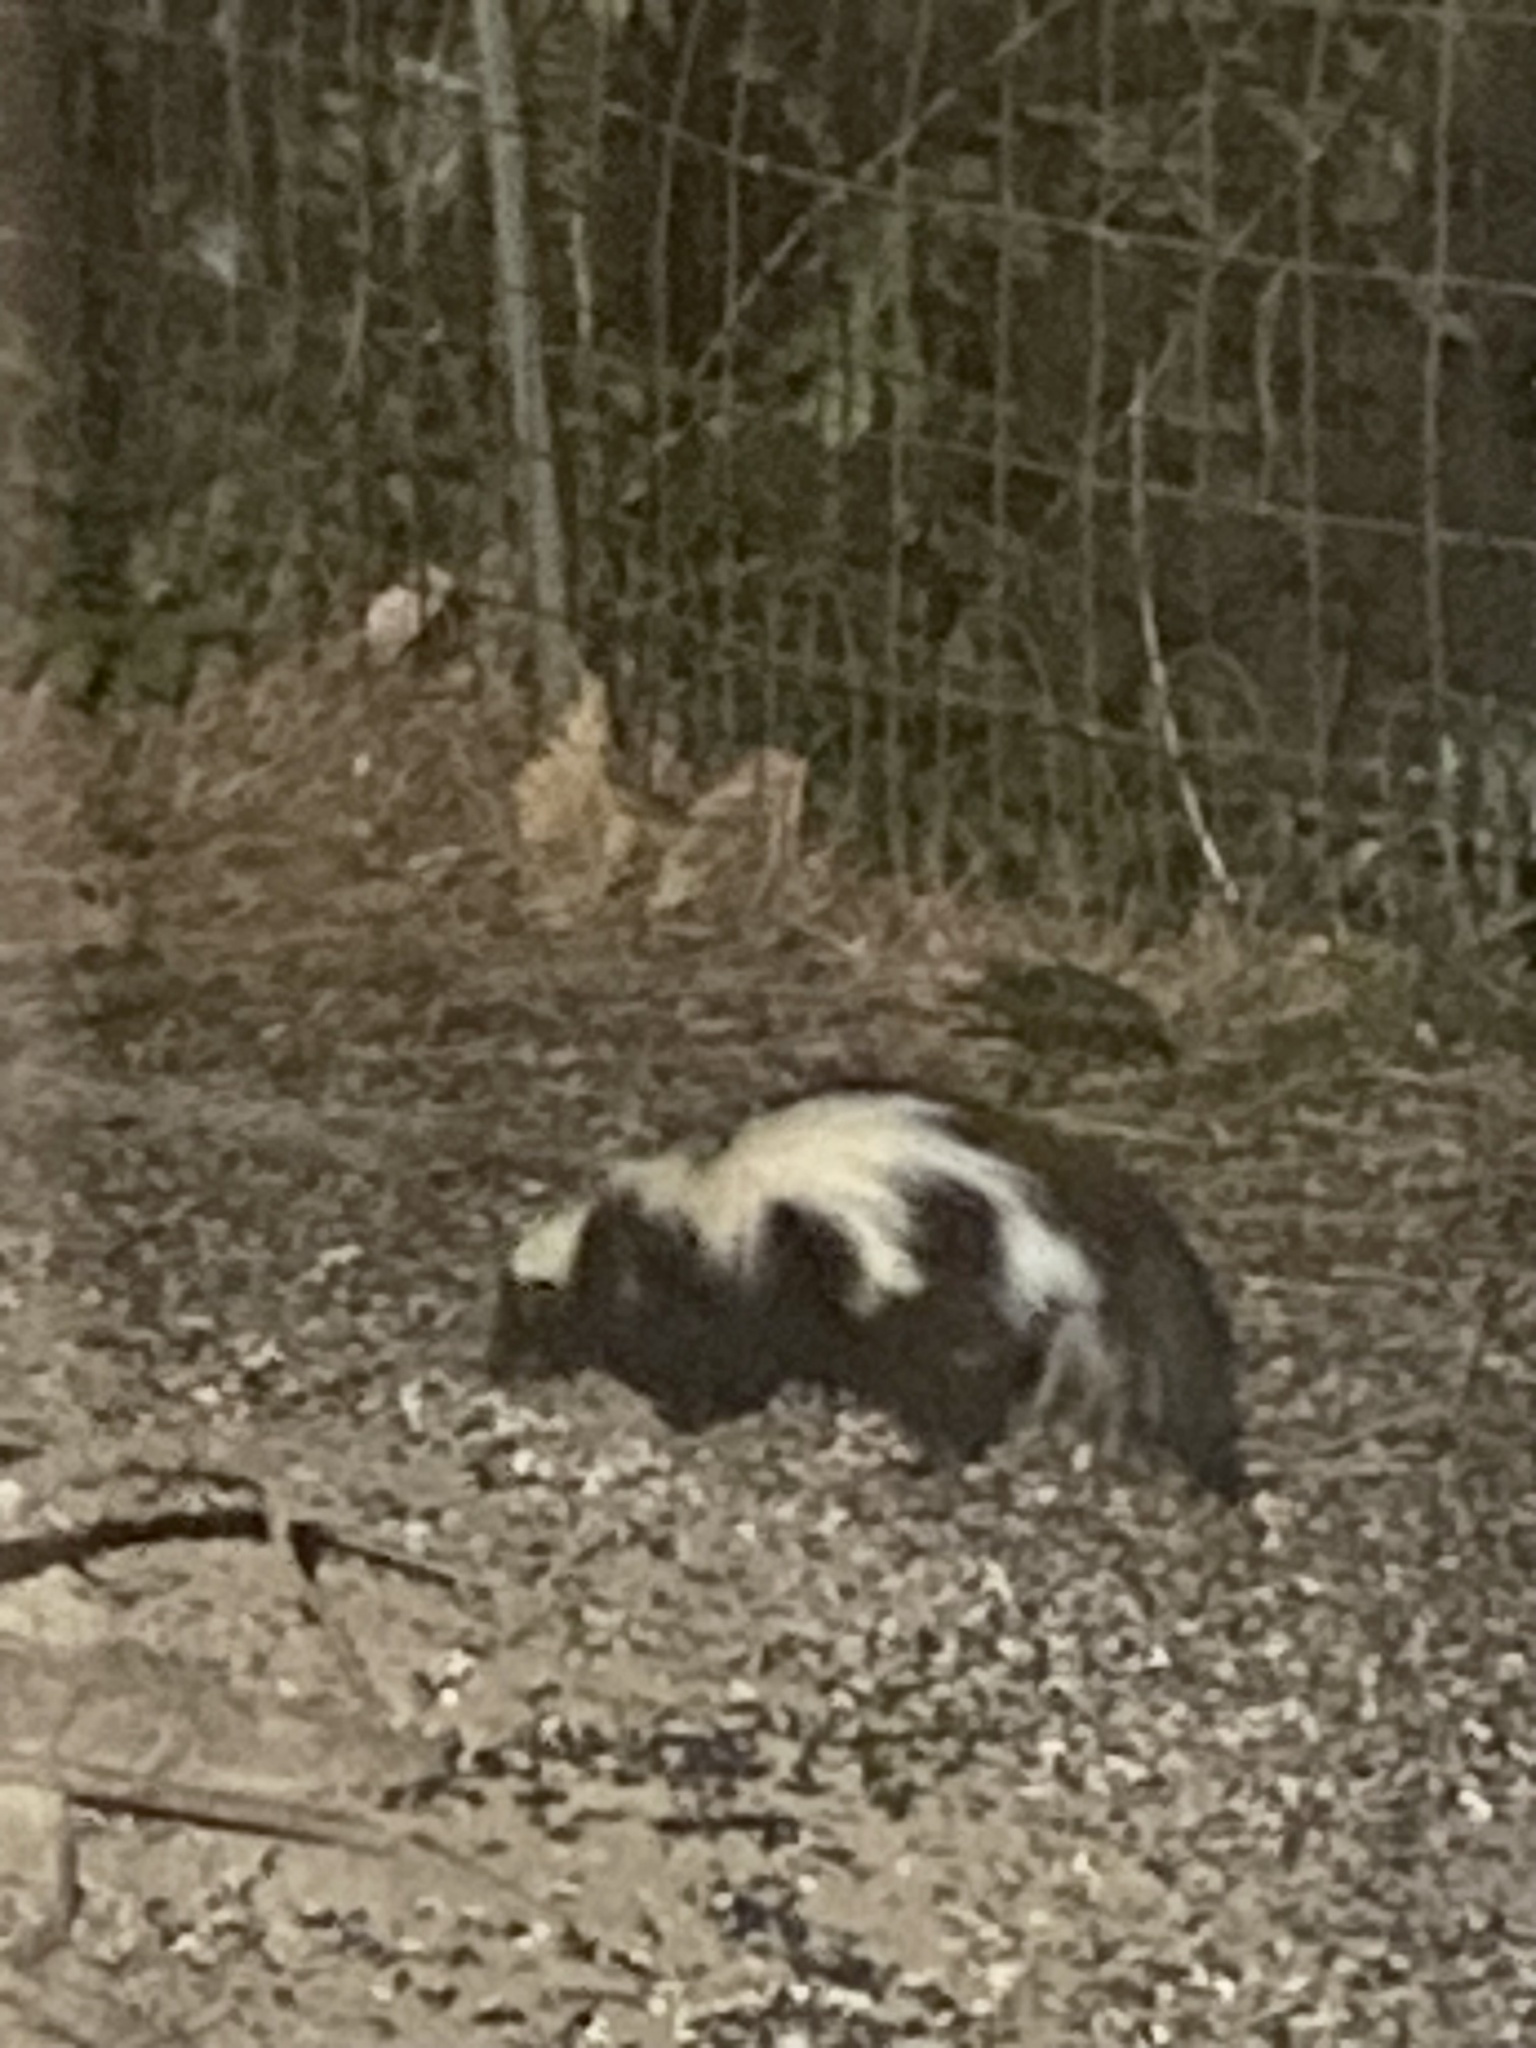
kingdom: Animalia
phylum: Chordata
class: Mammalia
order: Carnivora
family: Mephitidae
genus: Mephitis
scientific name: Mephitis mephitis
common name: Striped skunk
